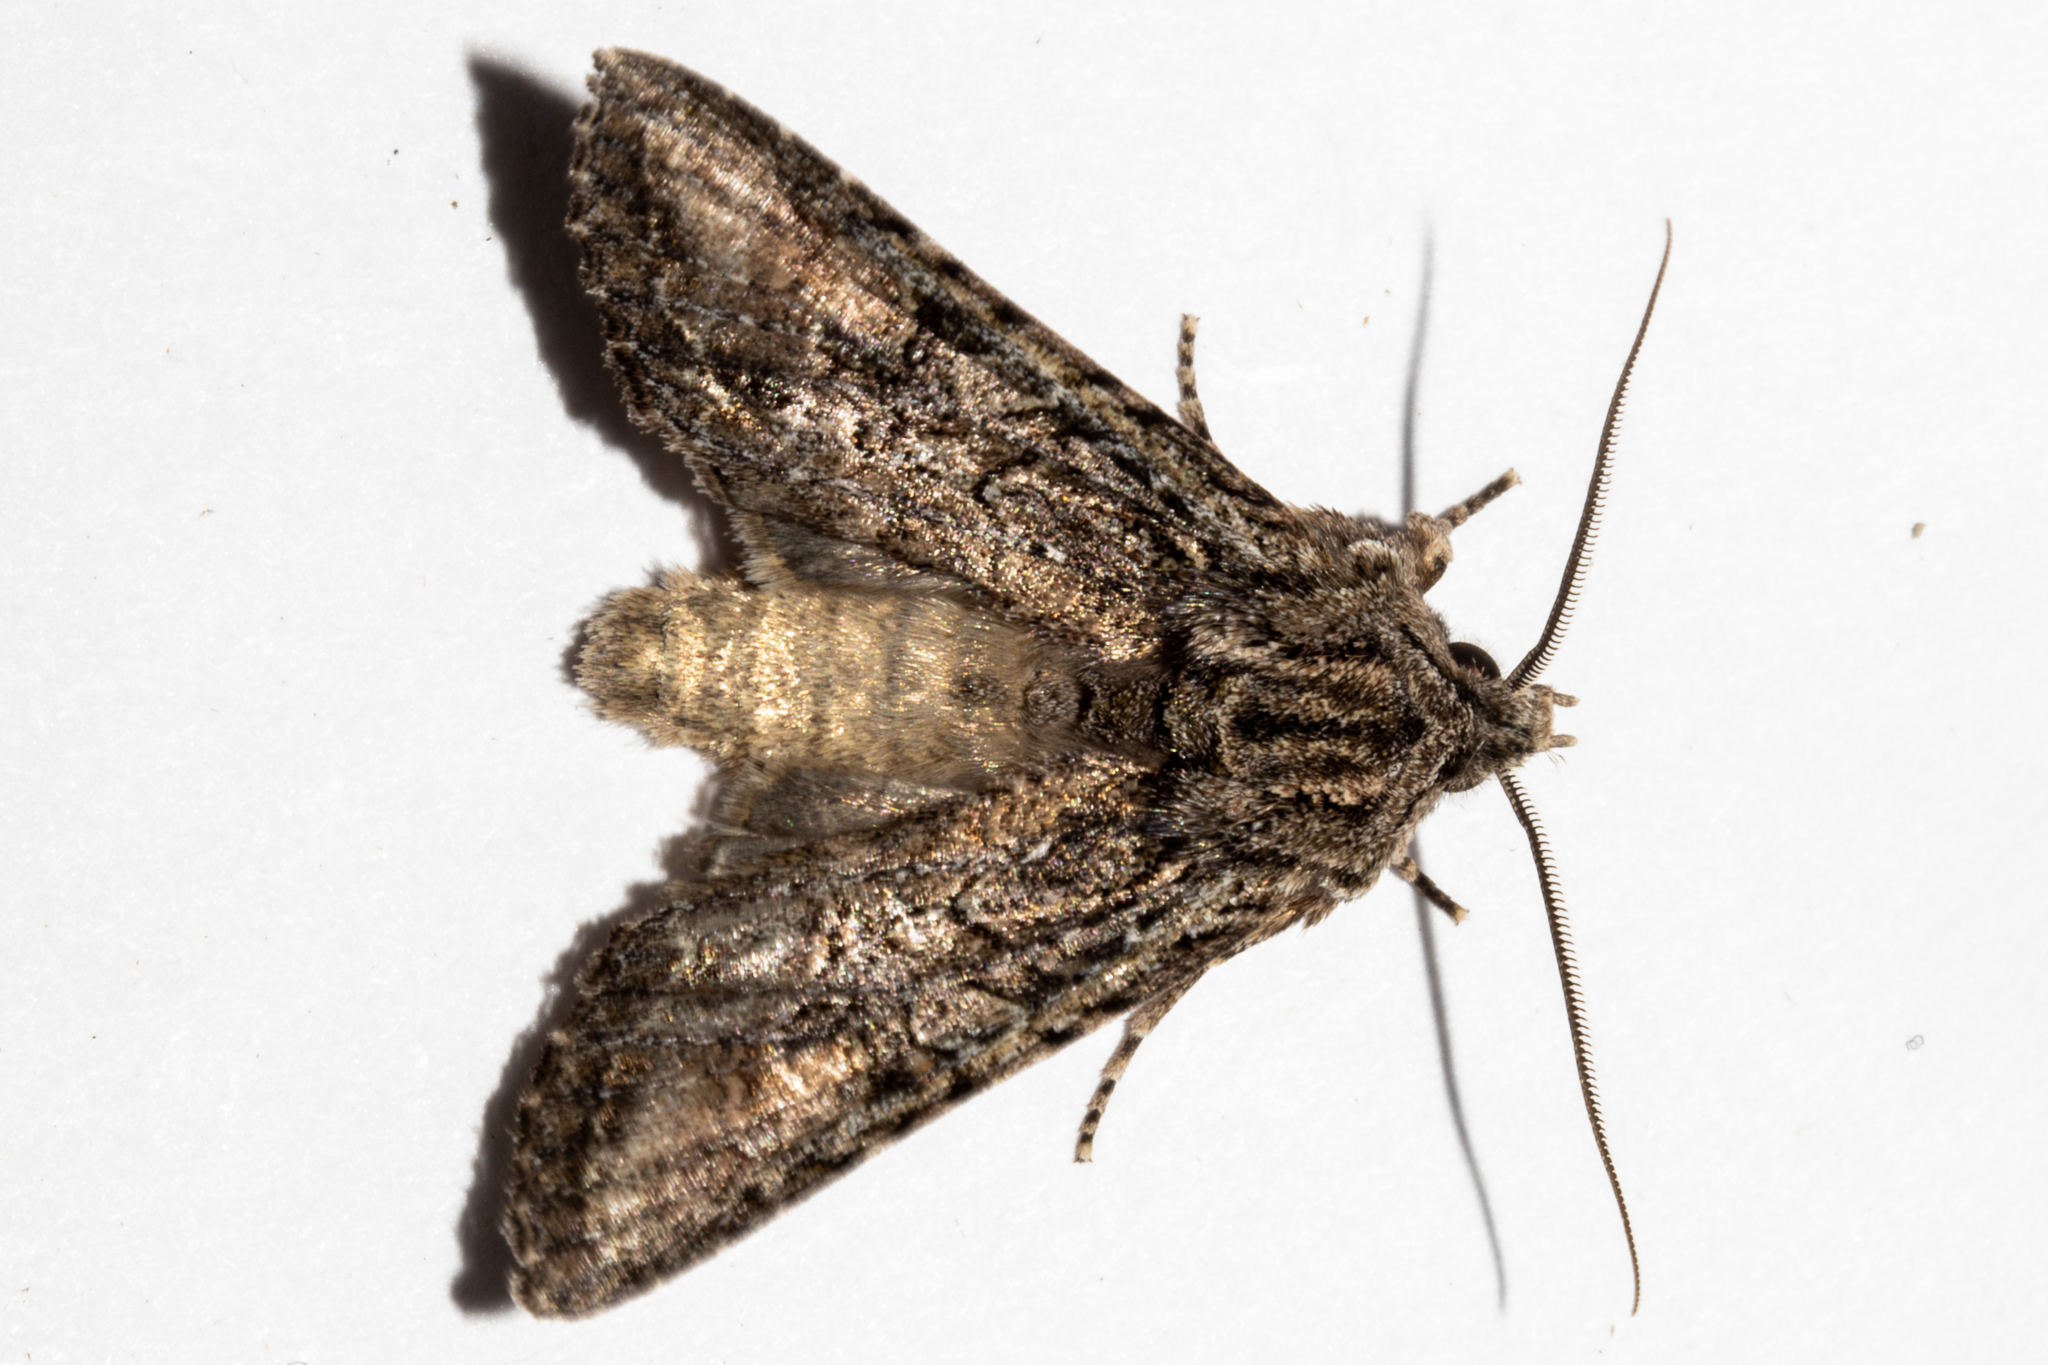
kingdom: Animalia
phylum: Arthropoda
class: Insecta
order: Lepidoptera
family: Noctuidae
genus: Ichneutica
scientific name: Ichneutica mutans
